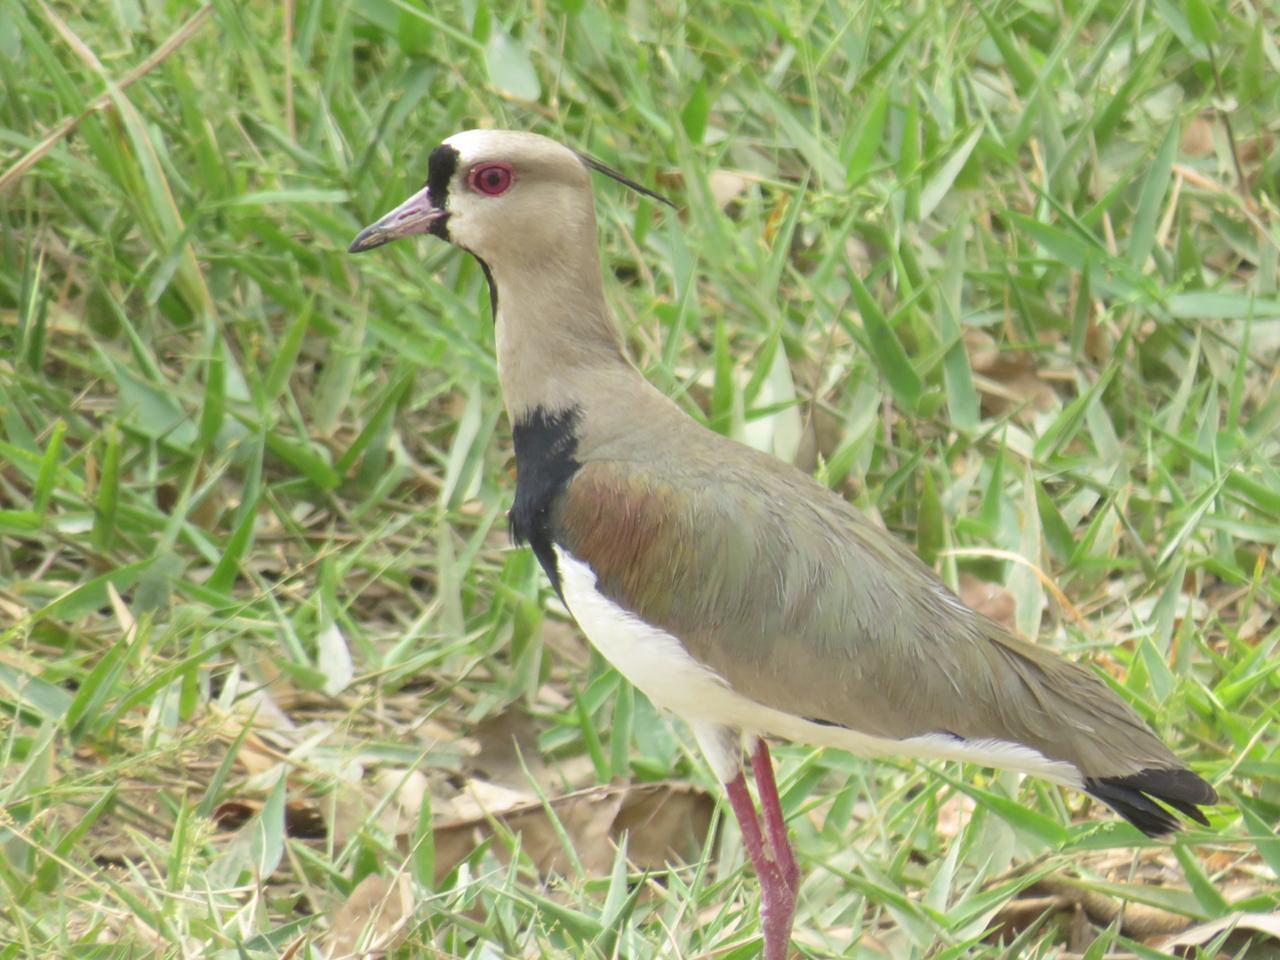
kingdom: Animalia
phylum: Chordata
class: Aves
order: Charadriiformes
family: Charadriidae
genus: Vanellus
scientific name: Vanellus chilensis
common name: Southern lapwing
